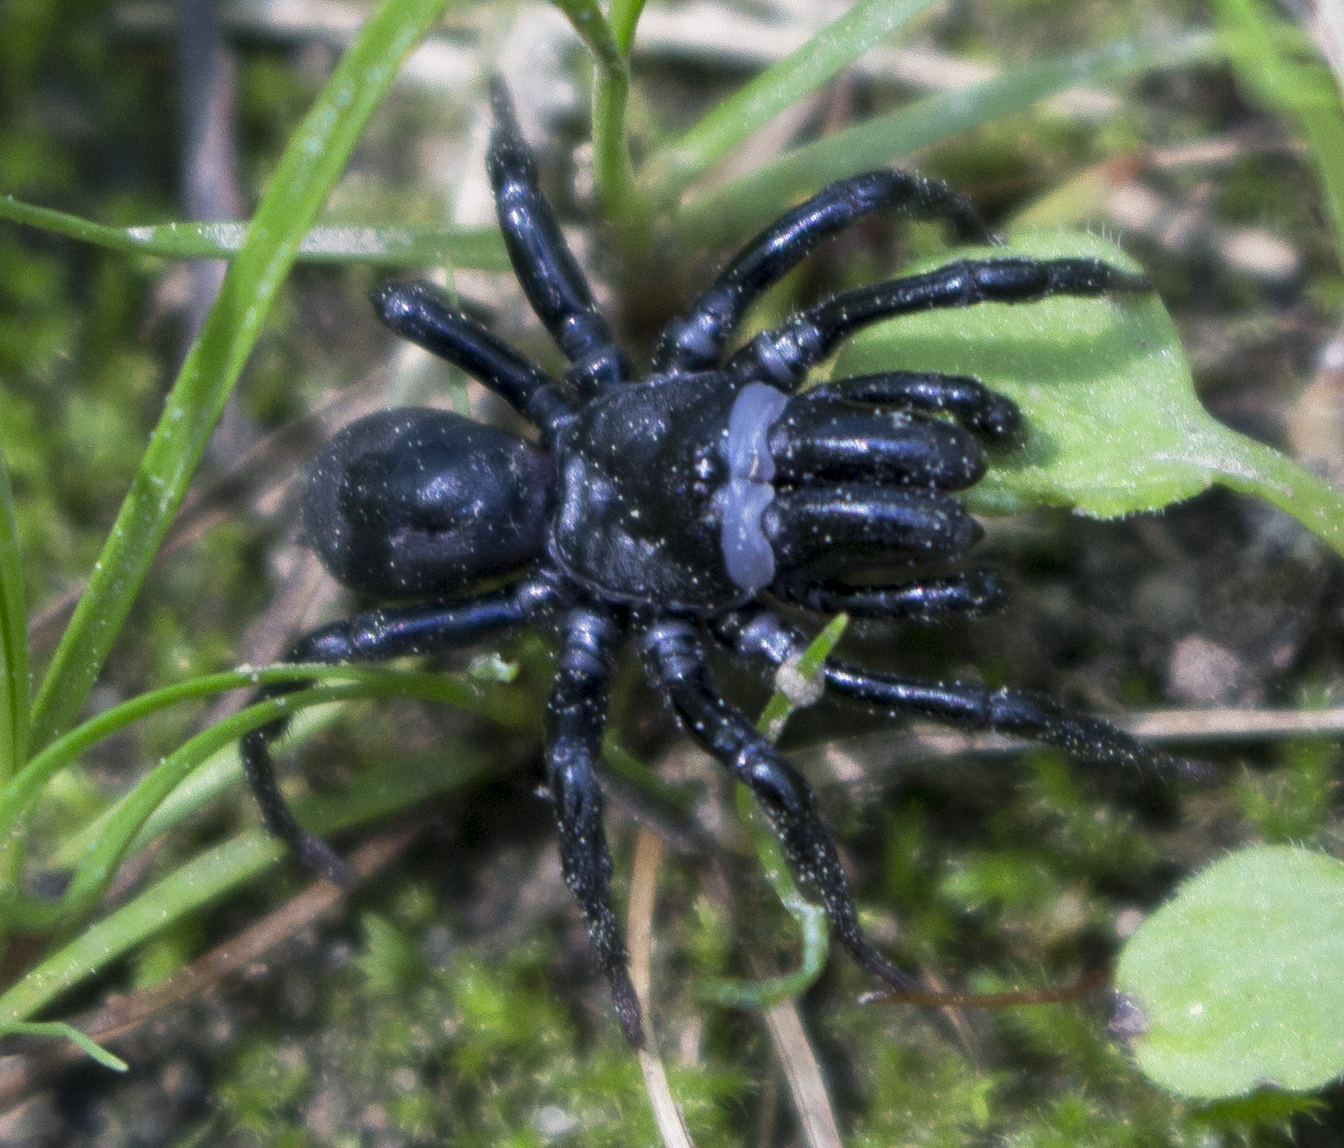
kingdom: Animalia
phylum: Arthropoda
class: Arachnida
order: Araneae
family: Atypidae
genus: Sphodros
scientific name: Sphodros niger
